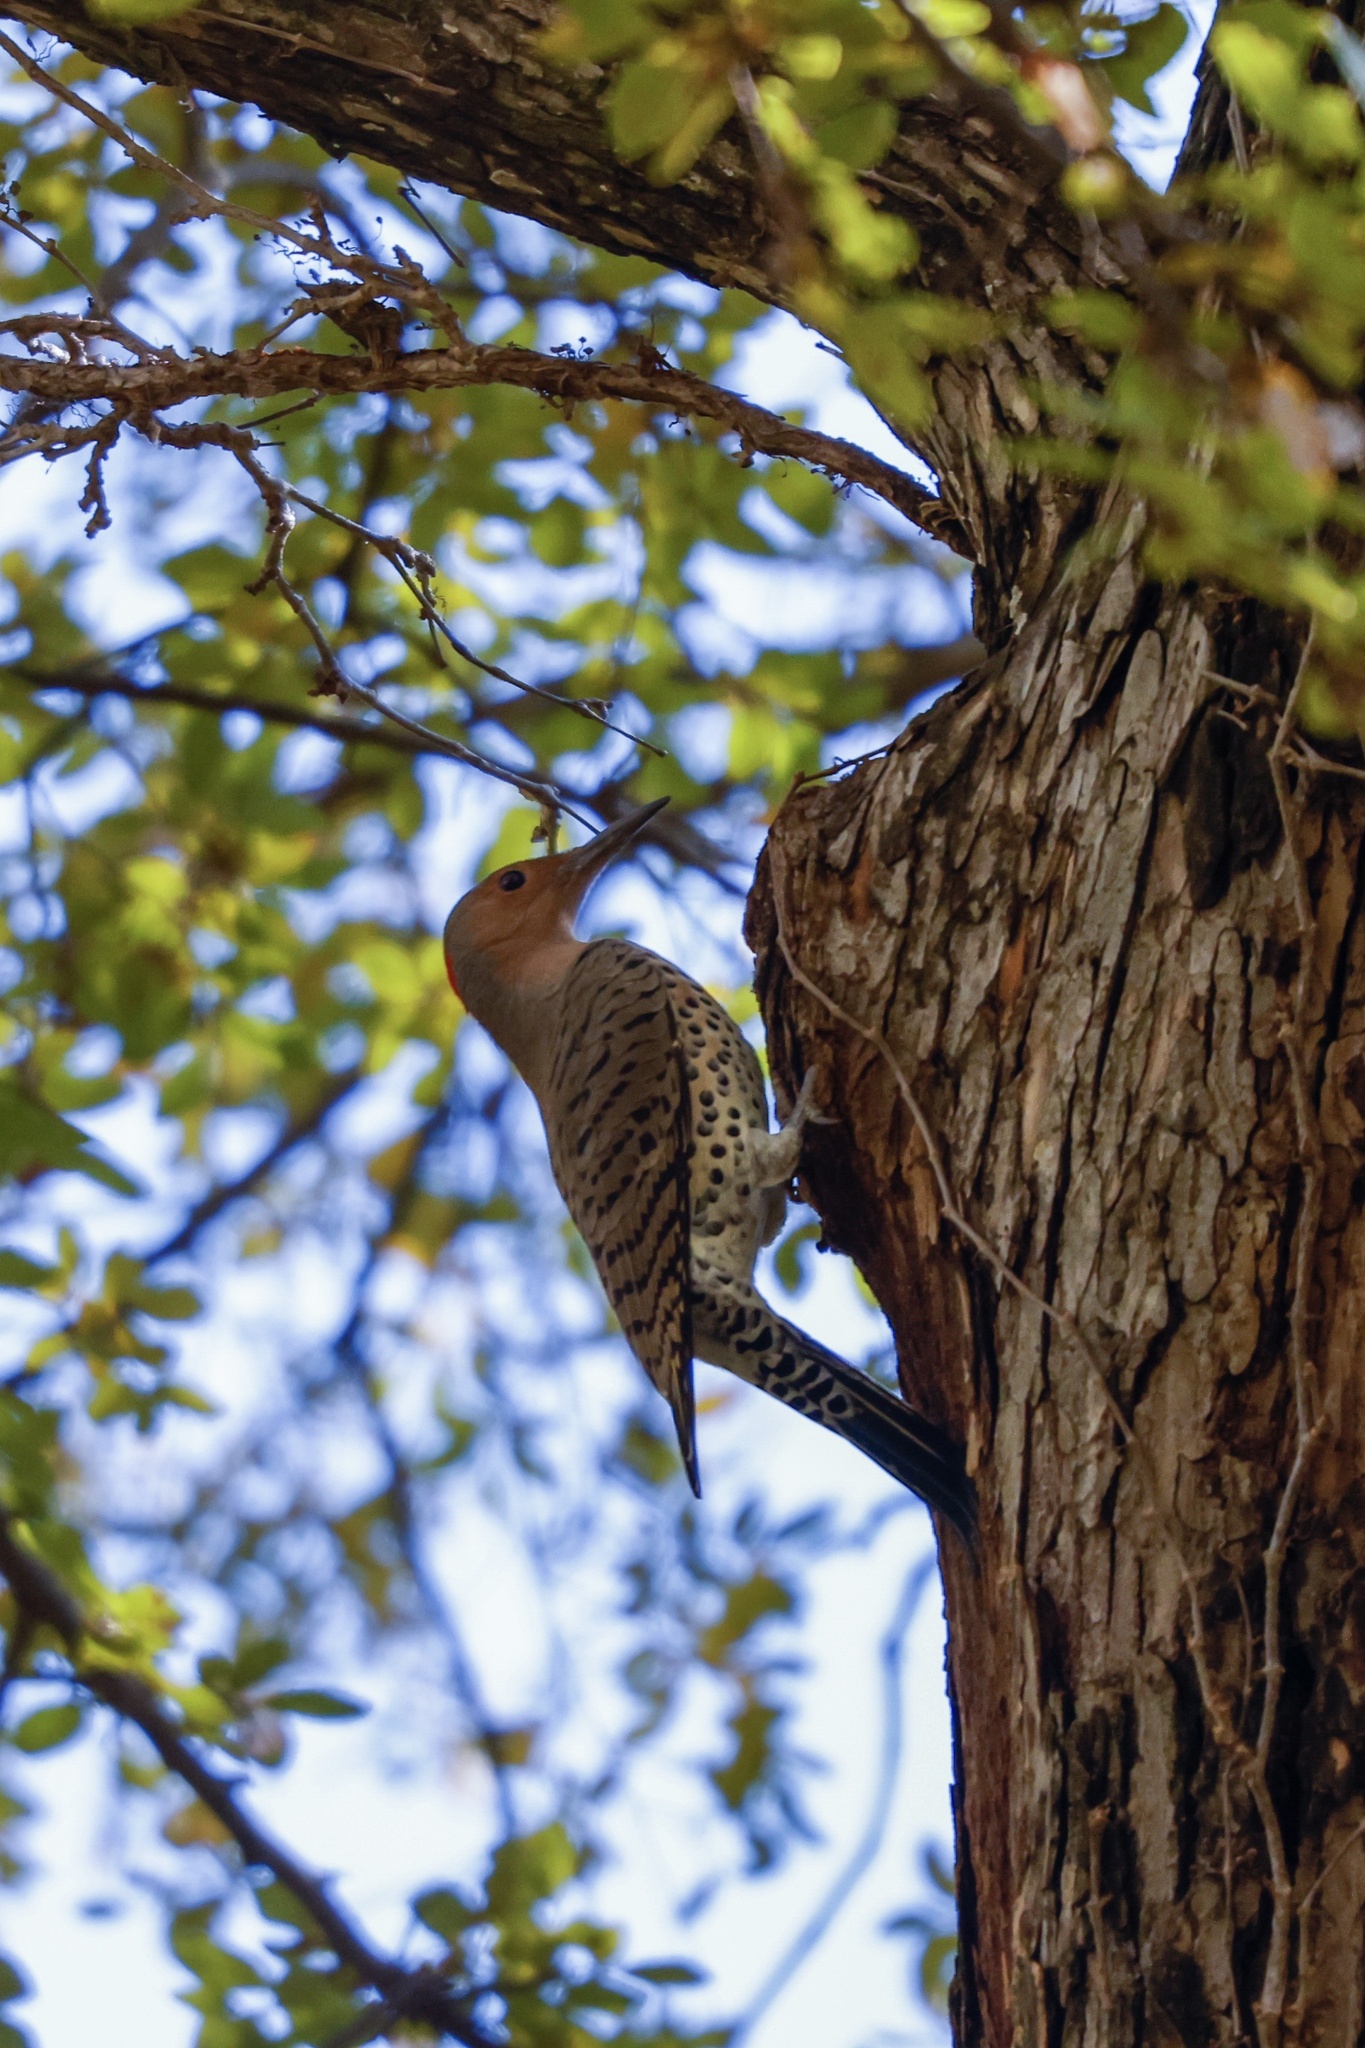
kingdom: Animalia
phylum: Chordata
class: Aves
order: Piciformes
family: Picidae
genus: Colaptes
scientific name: Colaptes auratus
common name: Northern flicker
